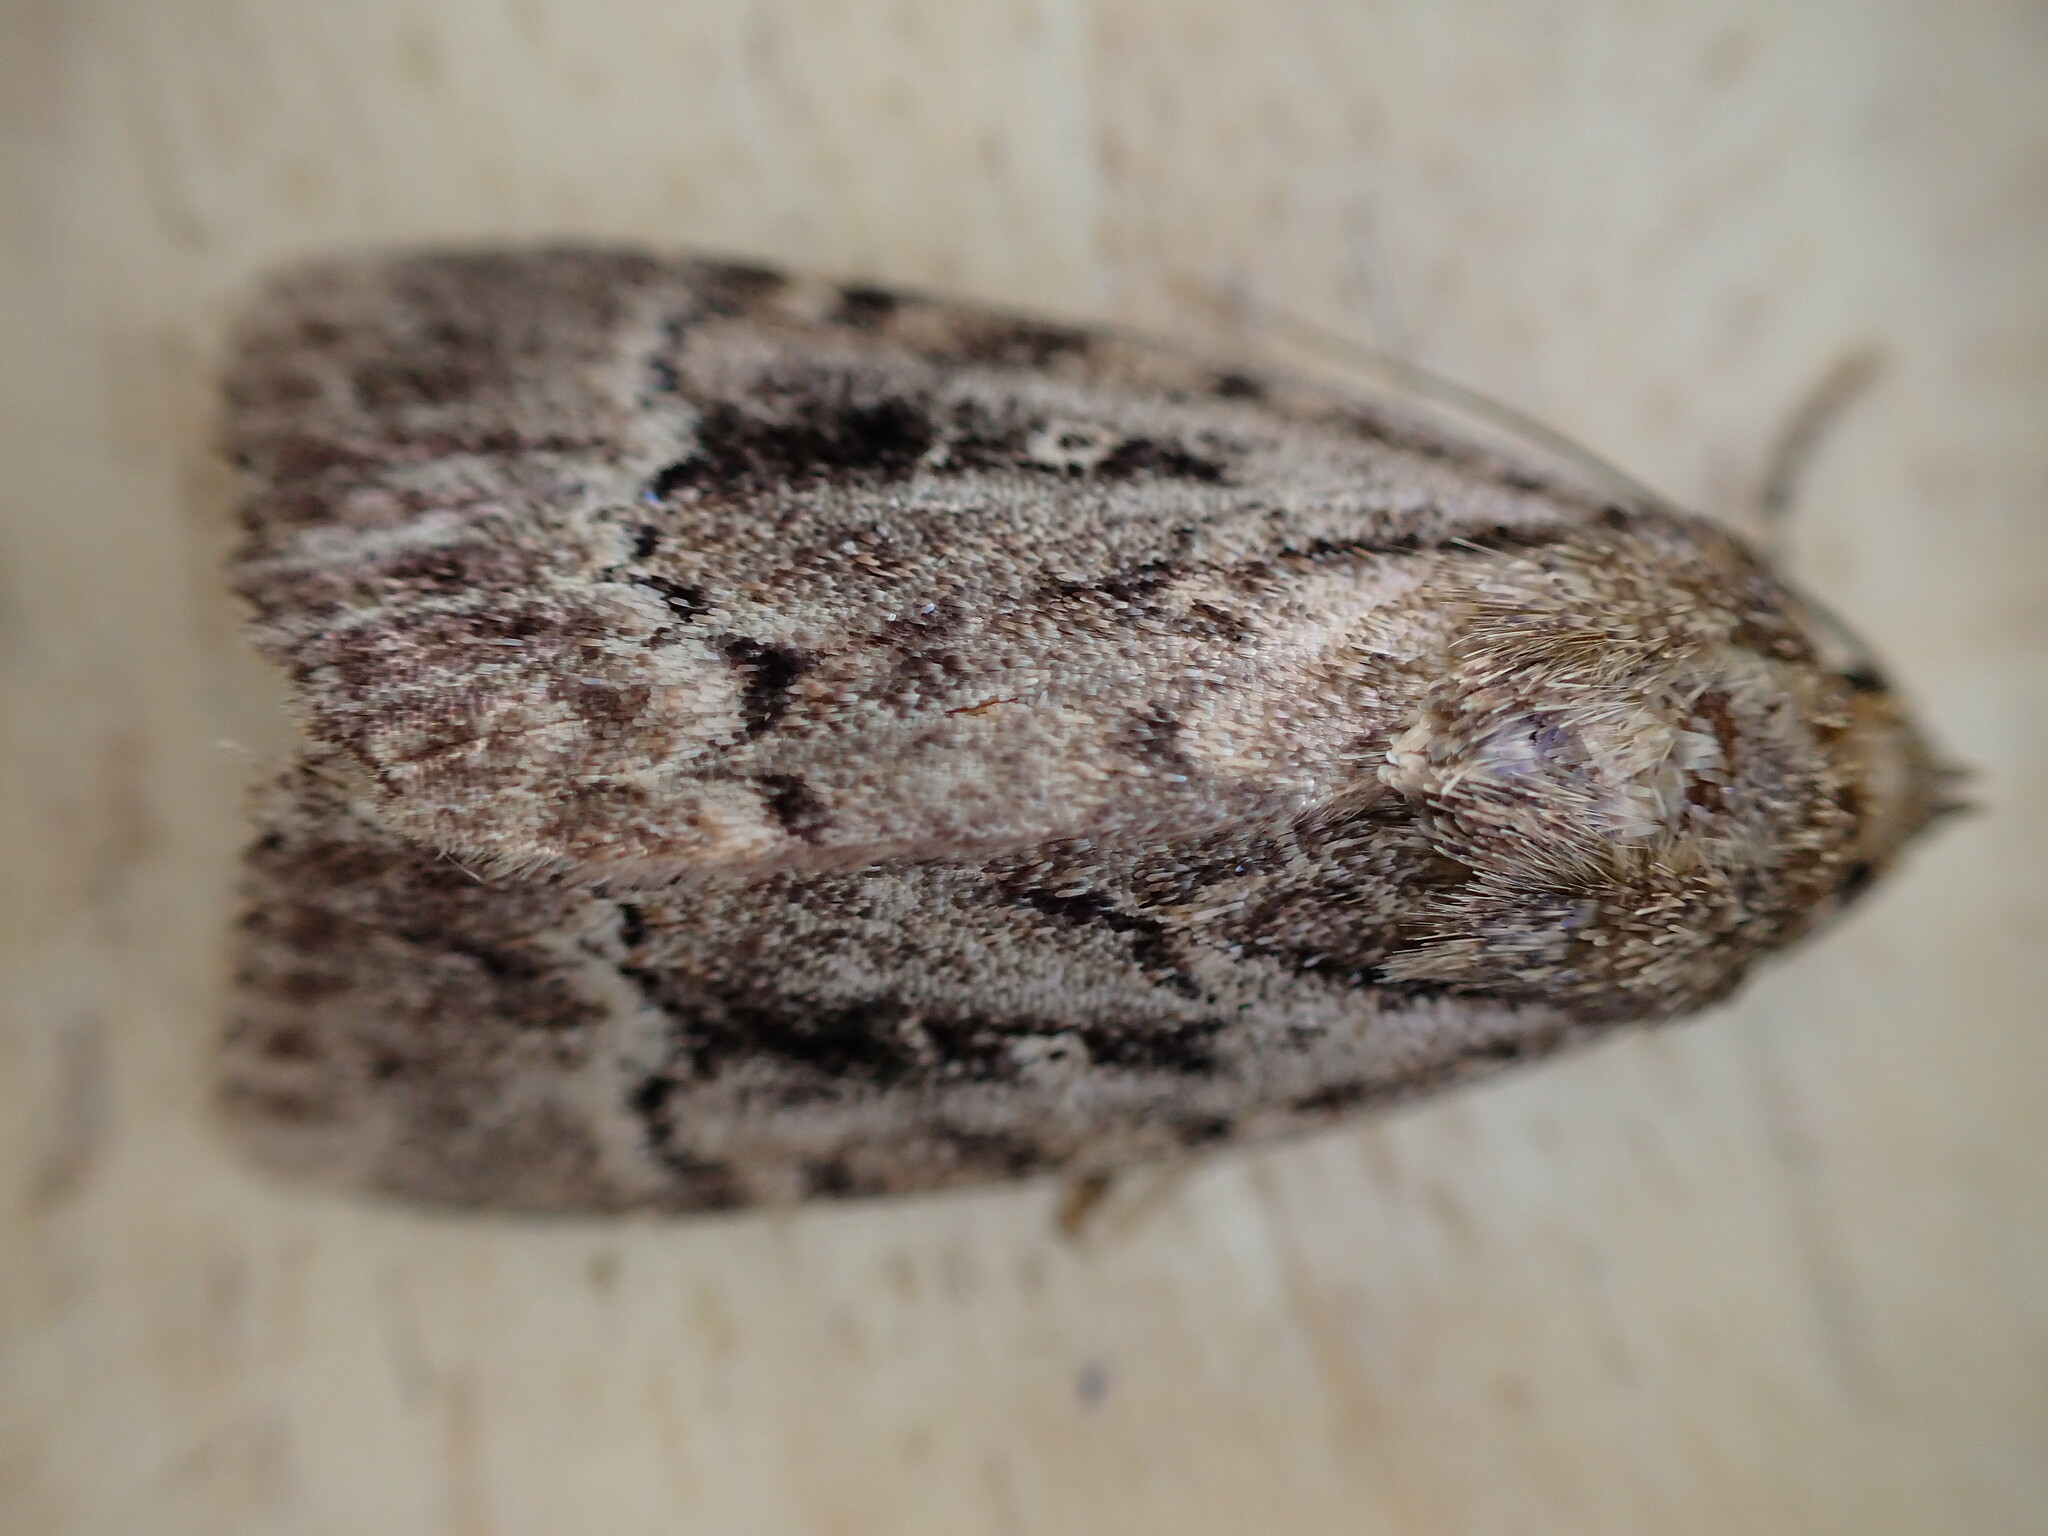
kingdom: Animalia
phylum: Arthropoda
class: Insecta
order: Lepidoptera
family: Noctuidae
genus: Amphipyra
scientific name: Amphipyra
